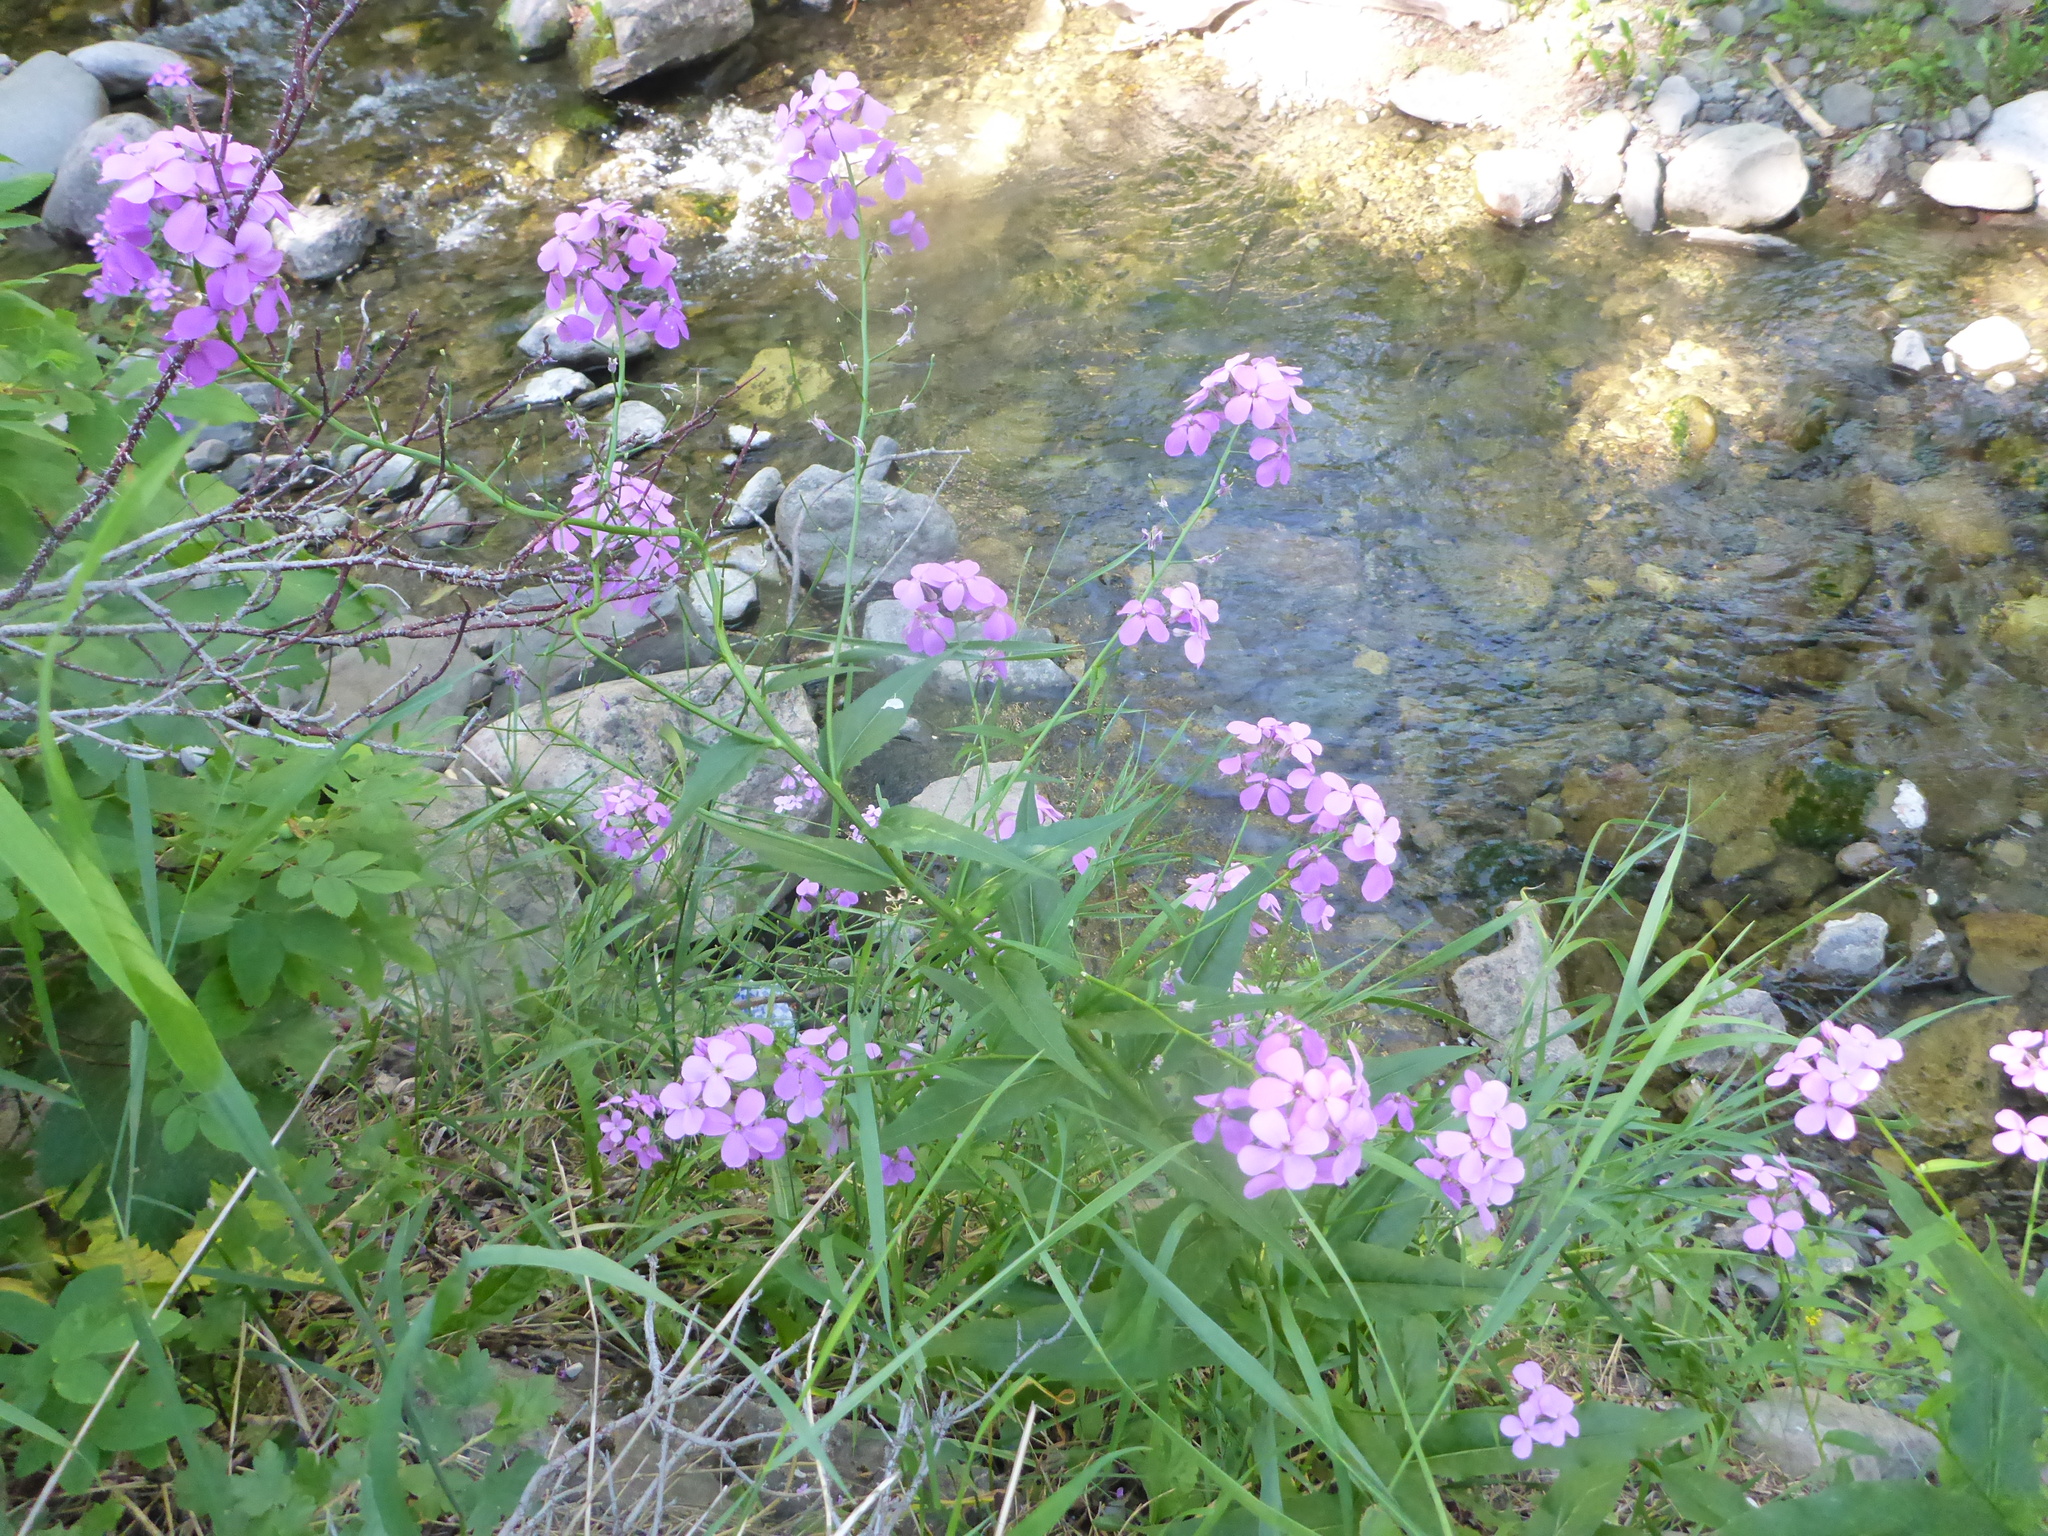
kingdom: Plantae
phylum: Tracheophyta
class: Magnoliopsida
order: Brassicales
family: Brassicaceae
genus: Hesperis
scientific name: Hesperis matronalis
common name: Dame's-violet
